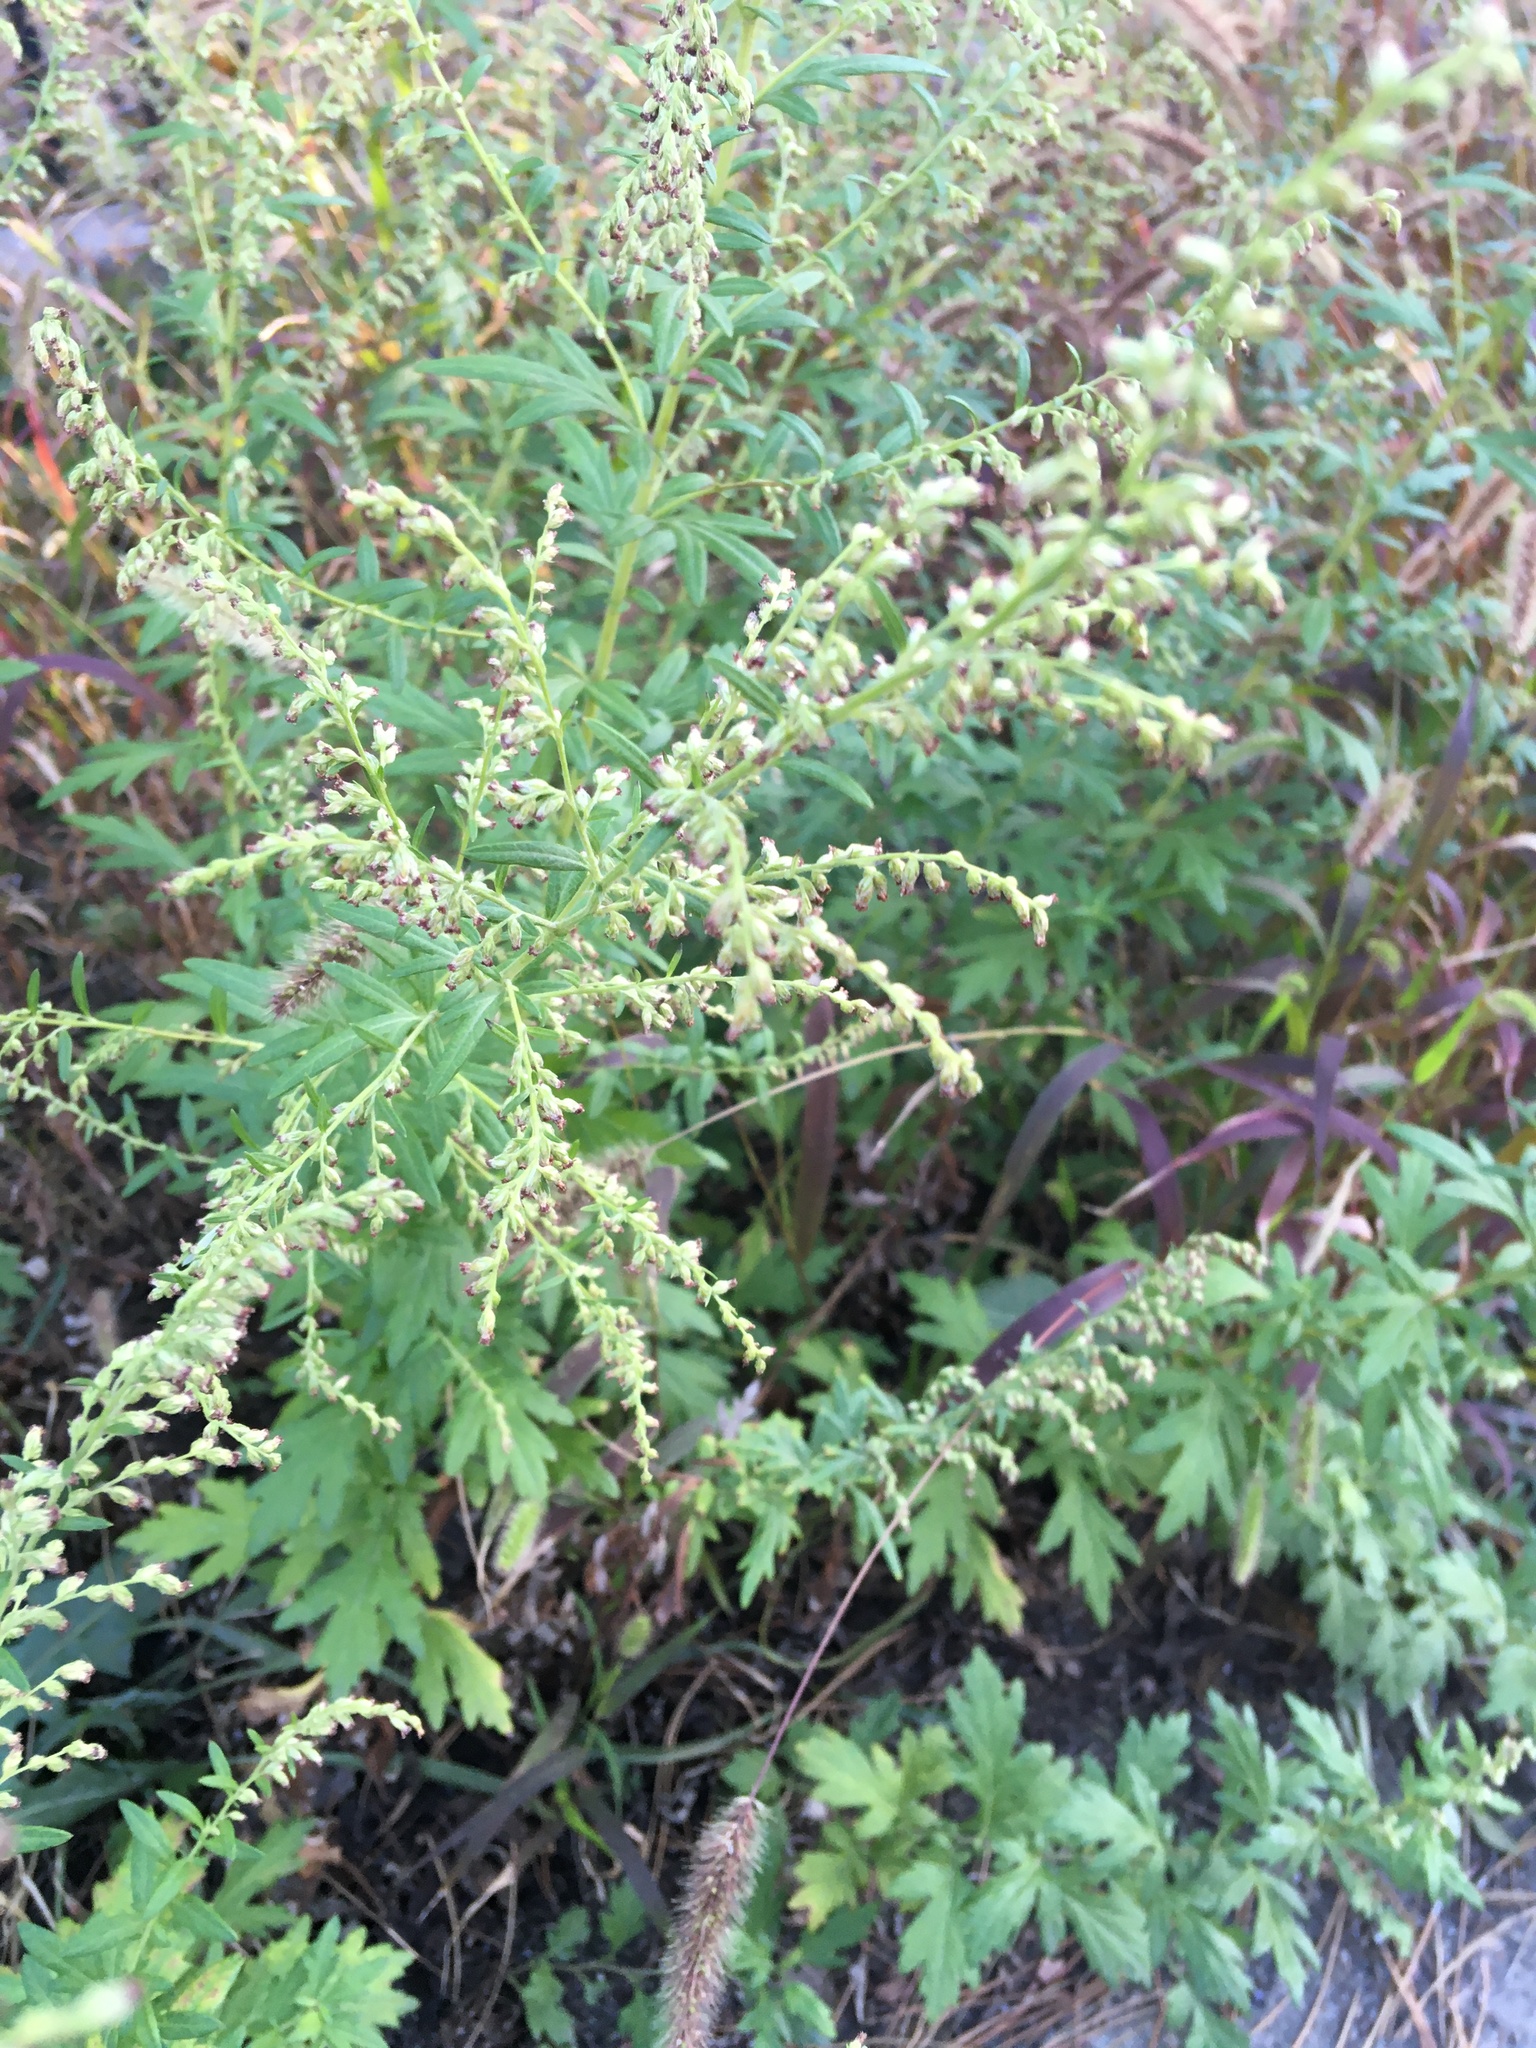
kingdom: Plantae
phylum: Tracheophyta
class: Magnoliopsida
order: Asterales
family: Asteraceae
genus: Artemisia
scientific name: Artemisia vulgaris
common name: Mugwort
